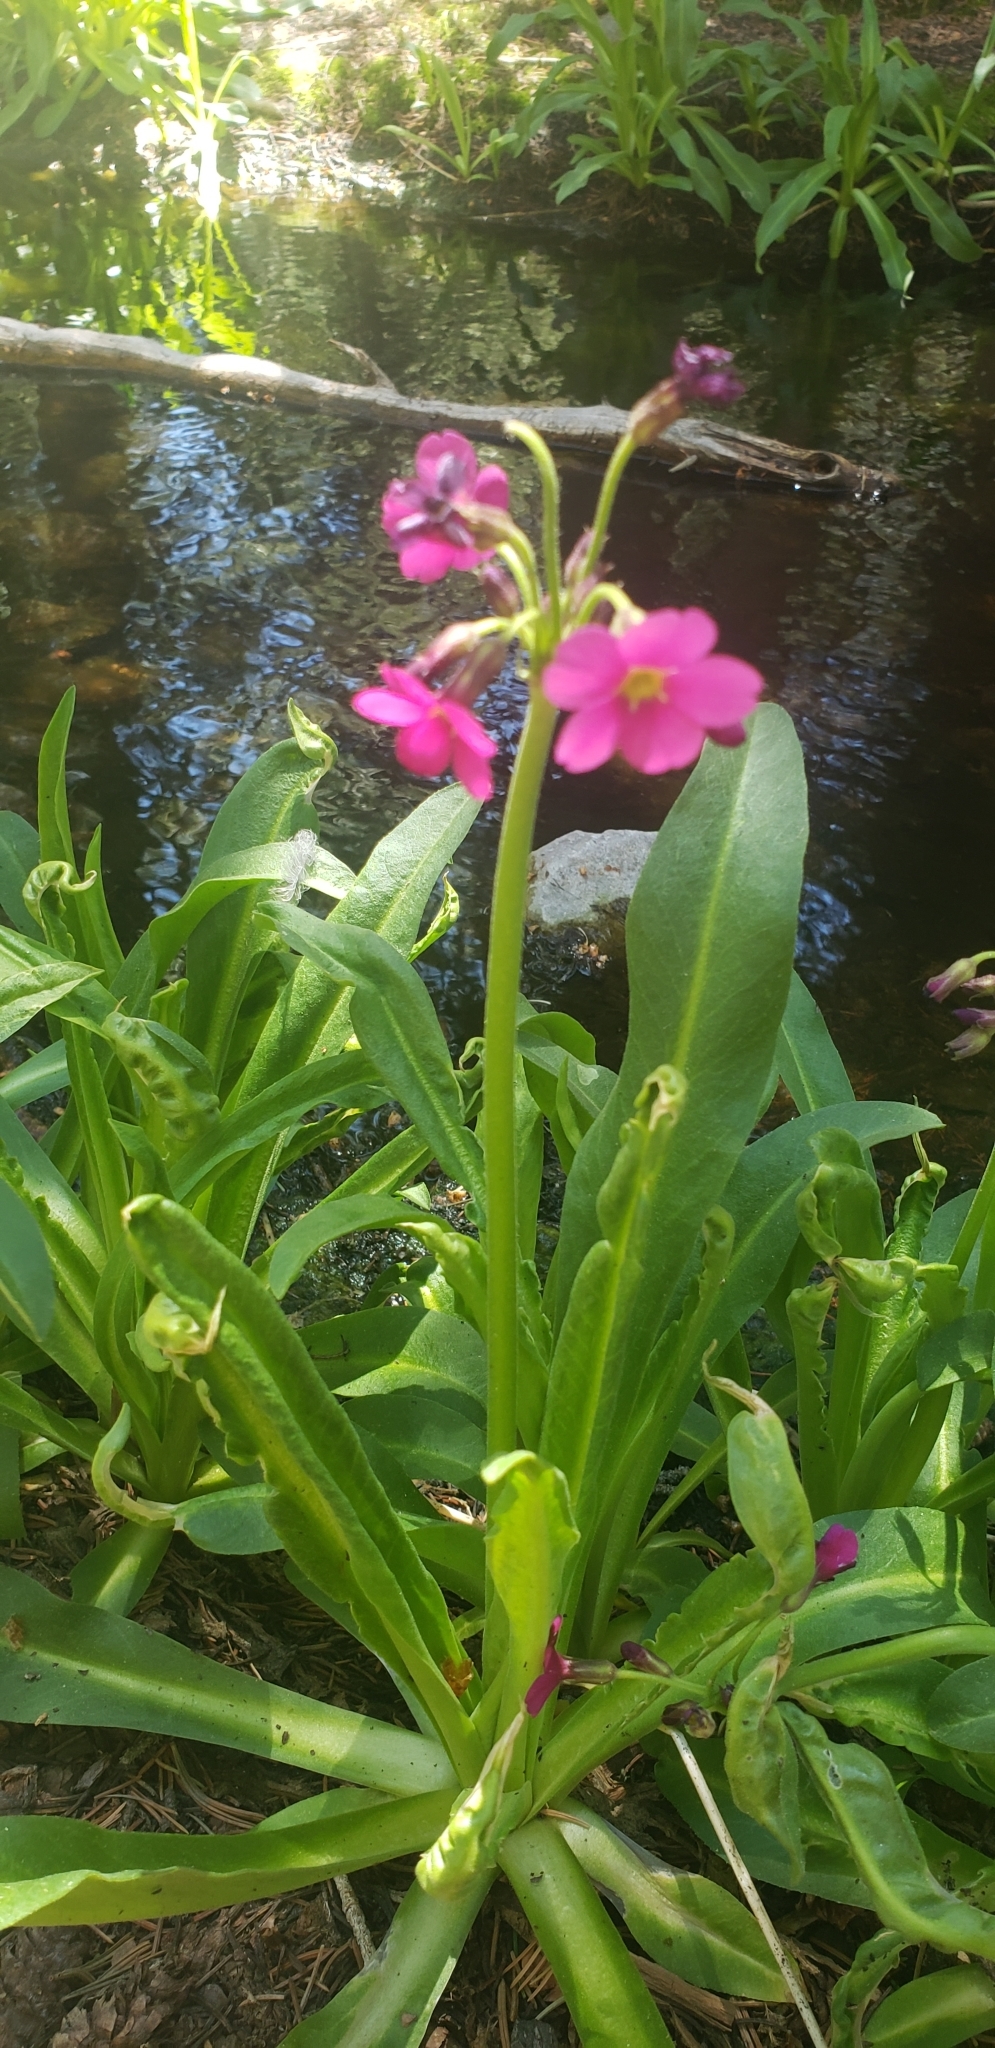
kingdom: Plantae
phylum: Tracheophyta
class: Magnoliopsida
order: Ericales
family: Primulaceae
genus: Primula
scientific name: Primula parryi
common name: Parry's primrose
